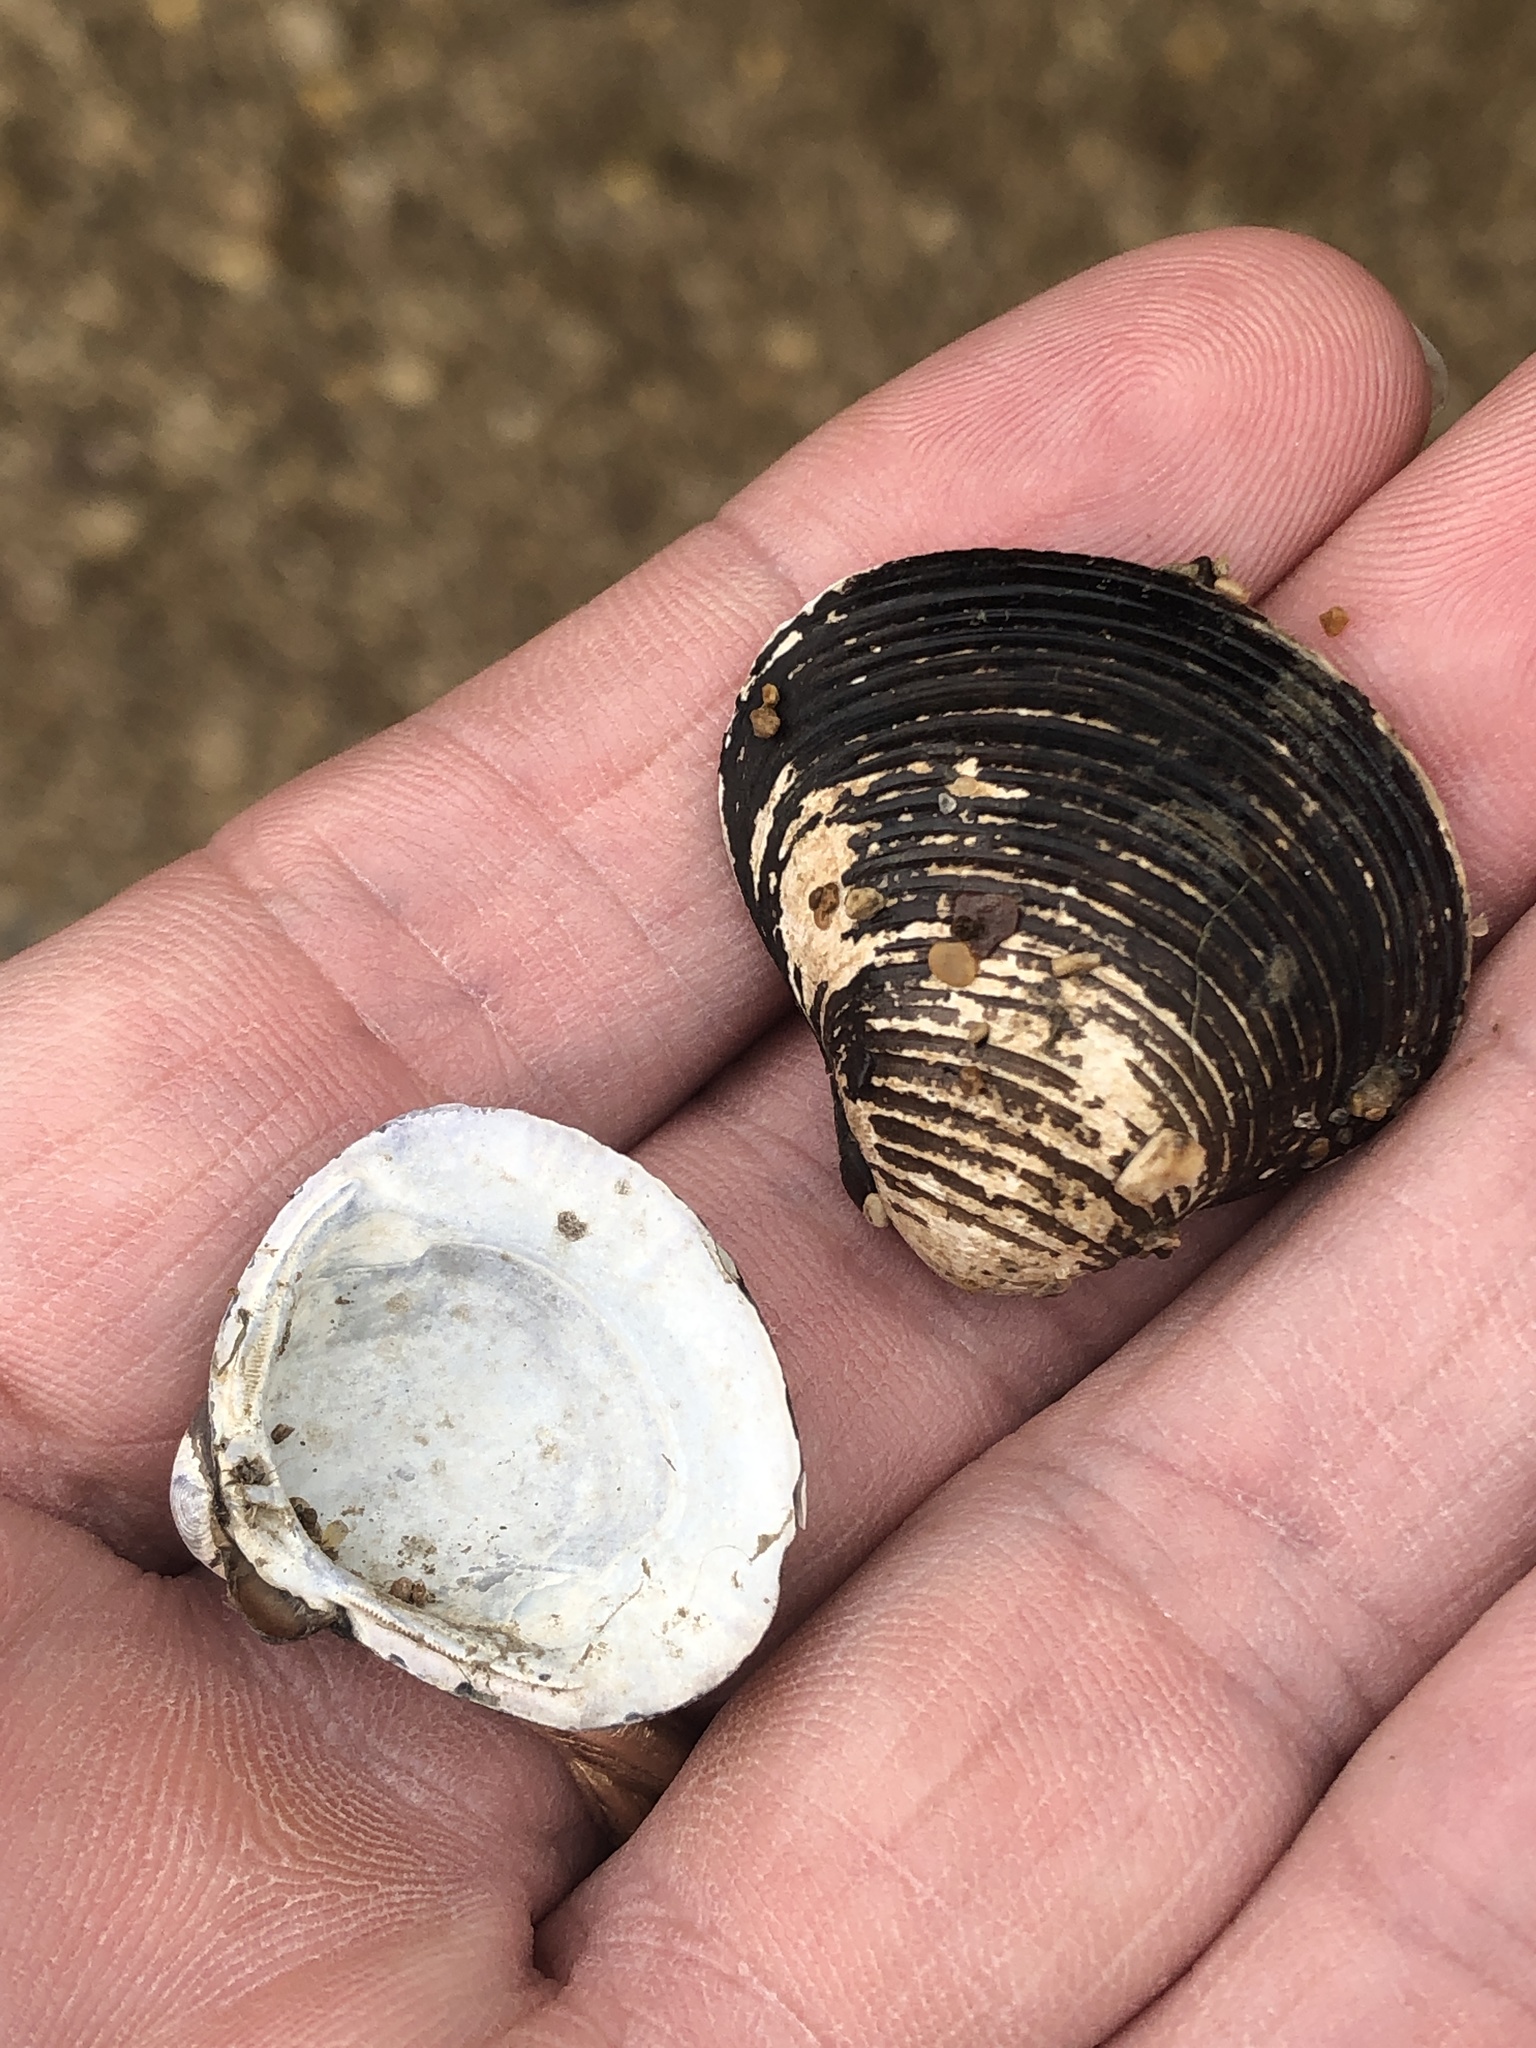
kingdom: Animalia
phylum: Mollusca
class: Bivalvia
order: Venerida
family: Cyrenidae
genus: Corbicula
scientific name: Corbicula fluminea
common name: Asian clam
